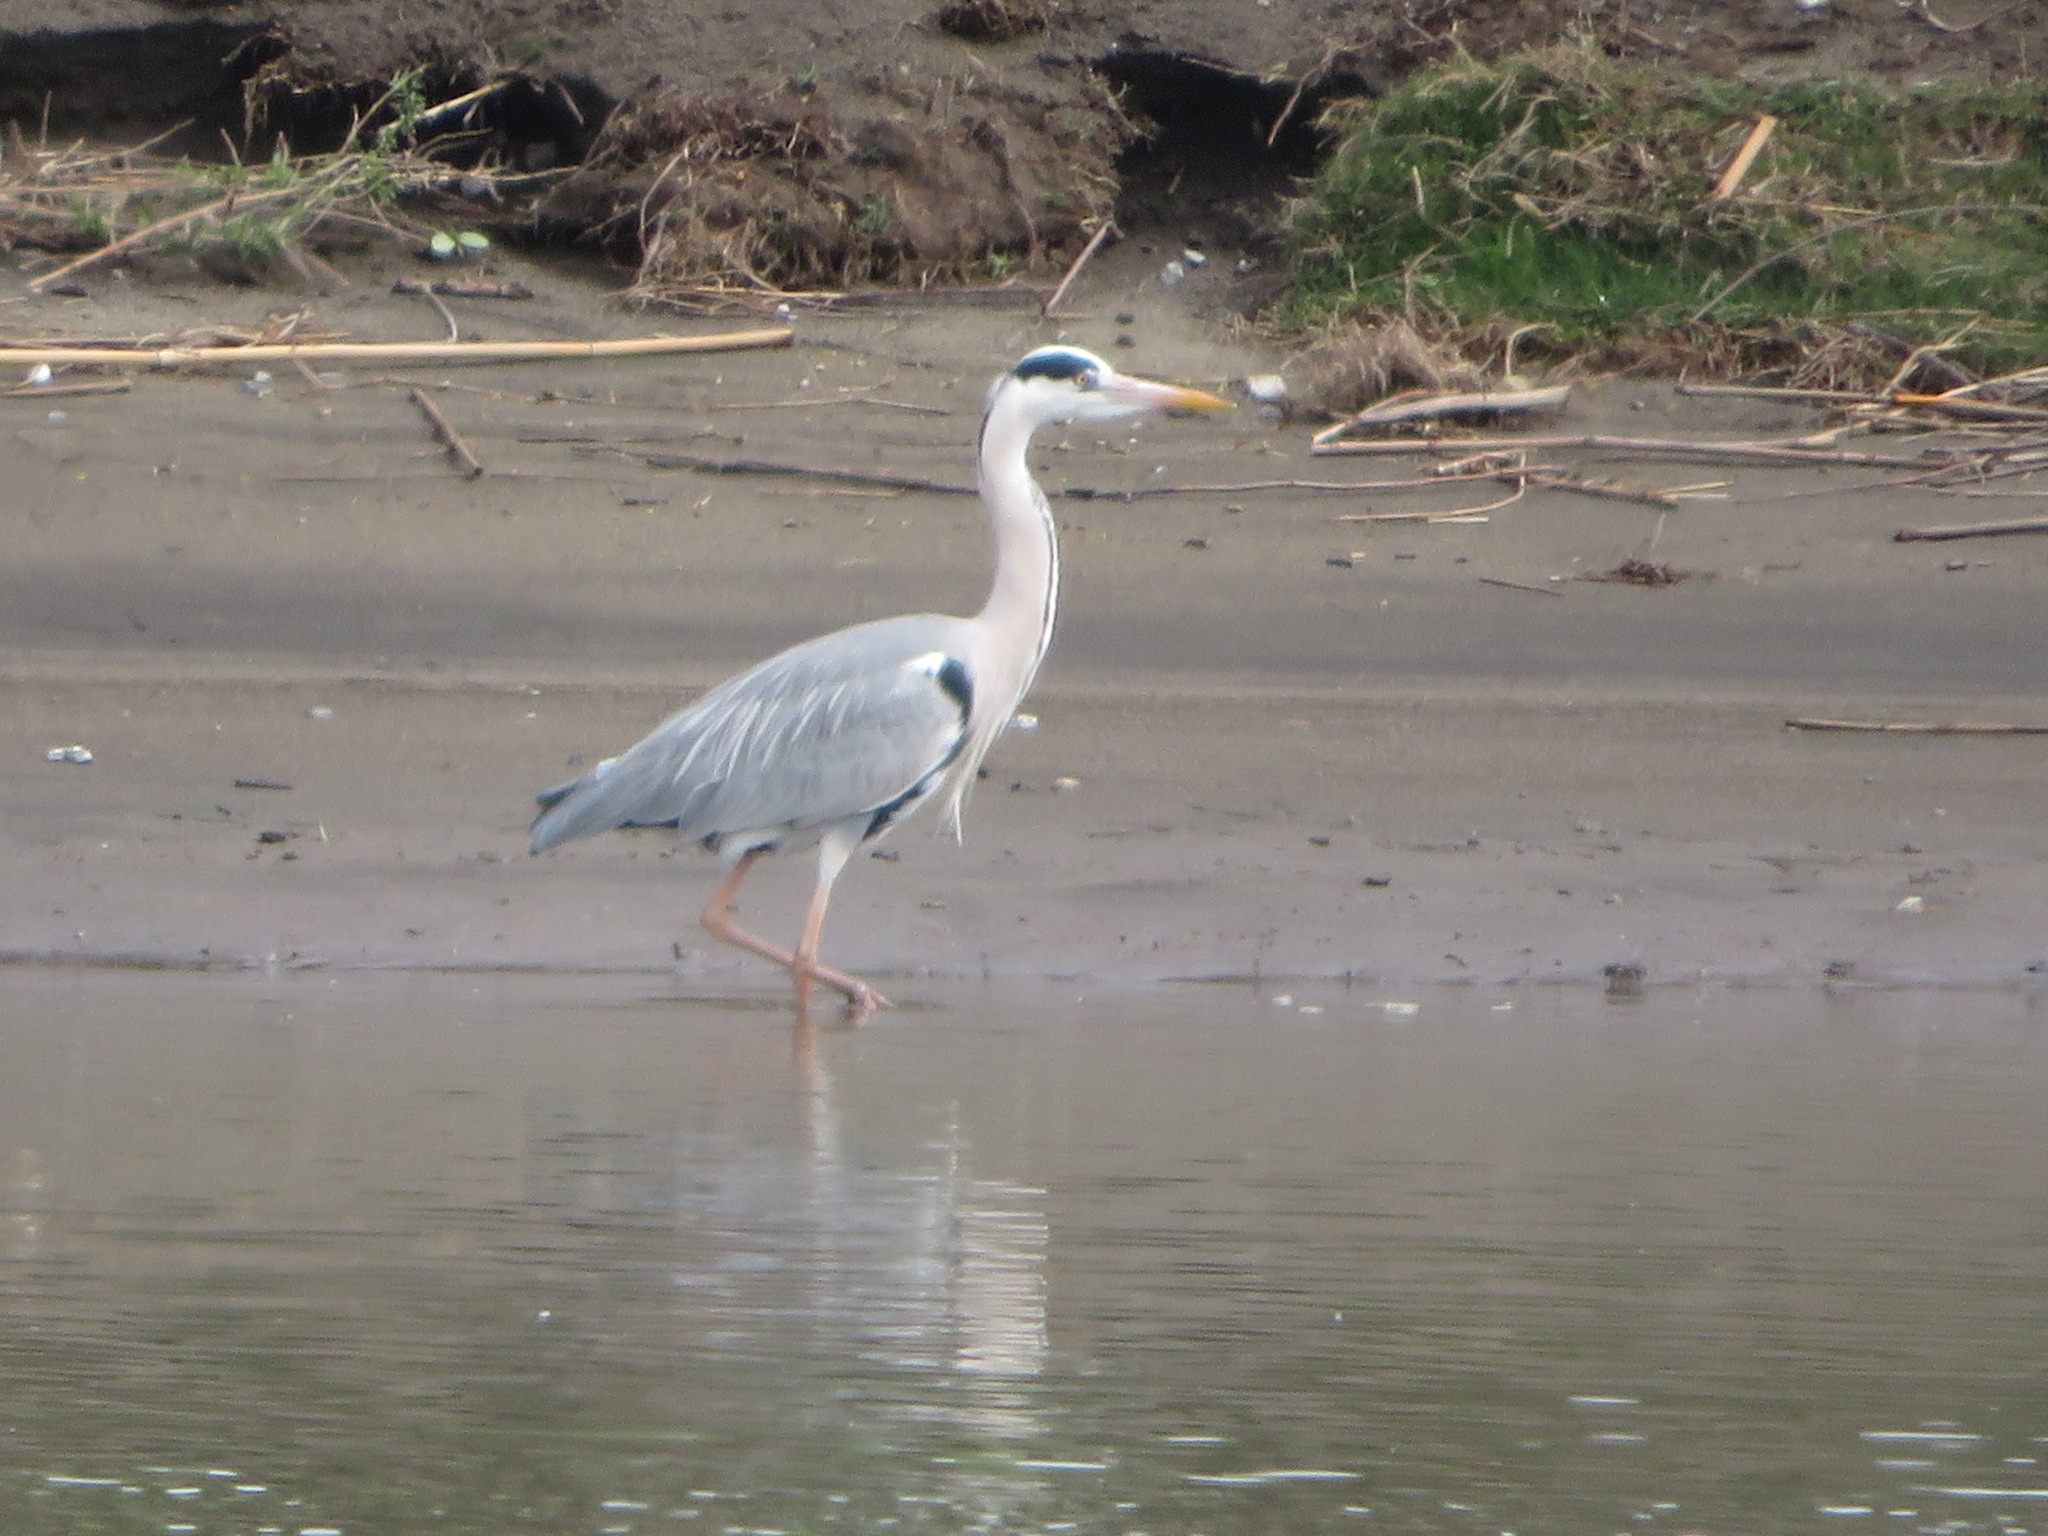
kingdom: Animalia
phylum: Chordata
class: Aves
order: Pelecaniformes
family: Ardeidae
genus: Ardea
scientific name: Ardea cinerea
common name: Grey heron
